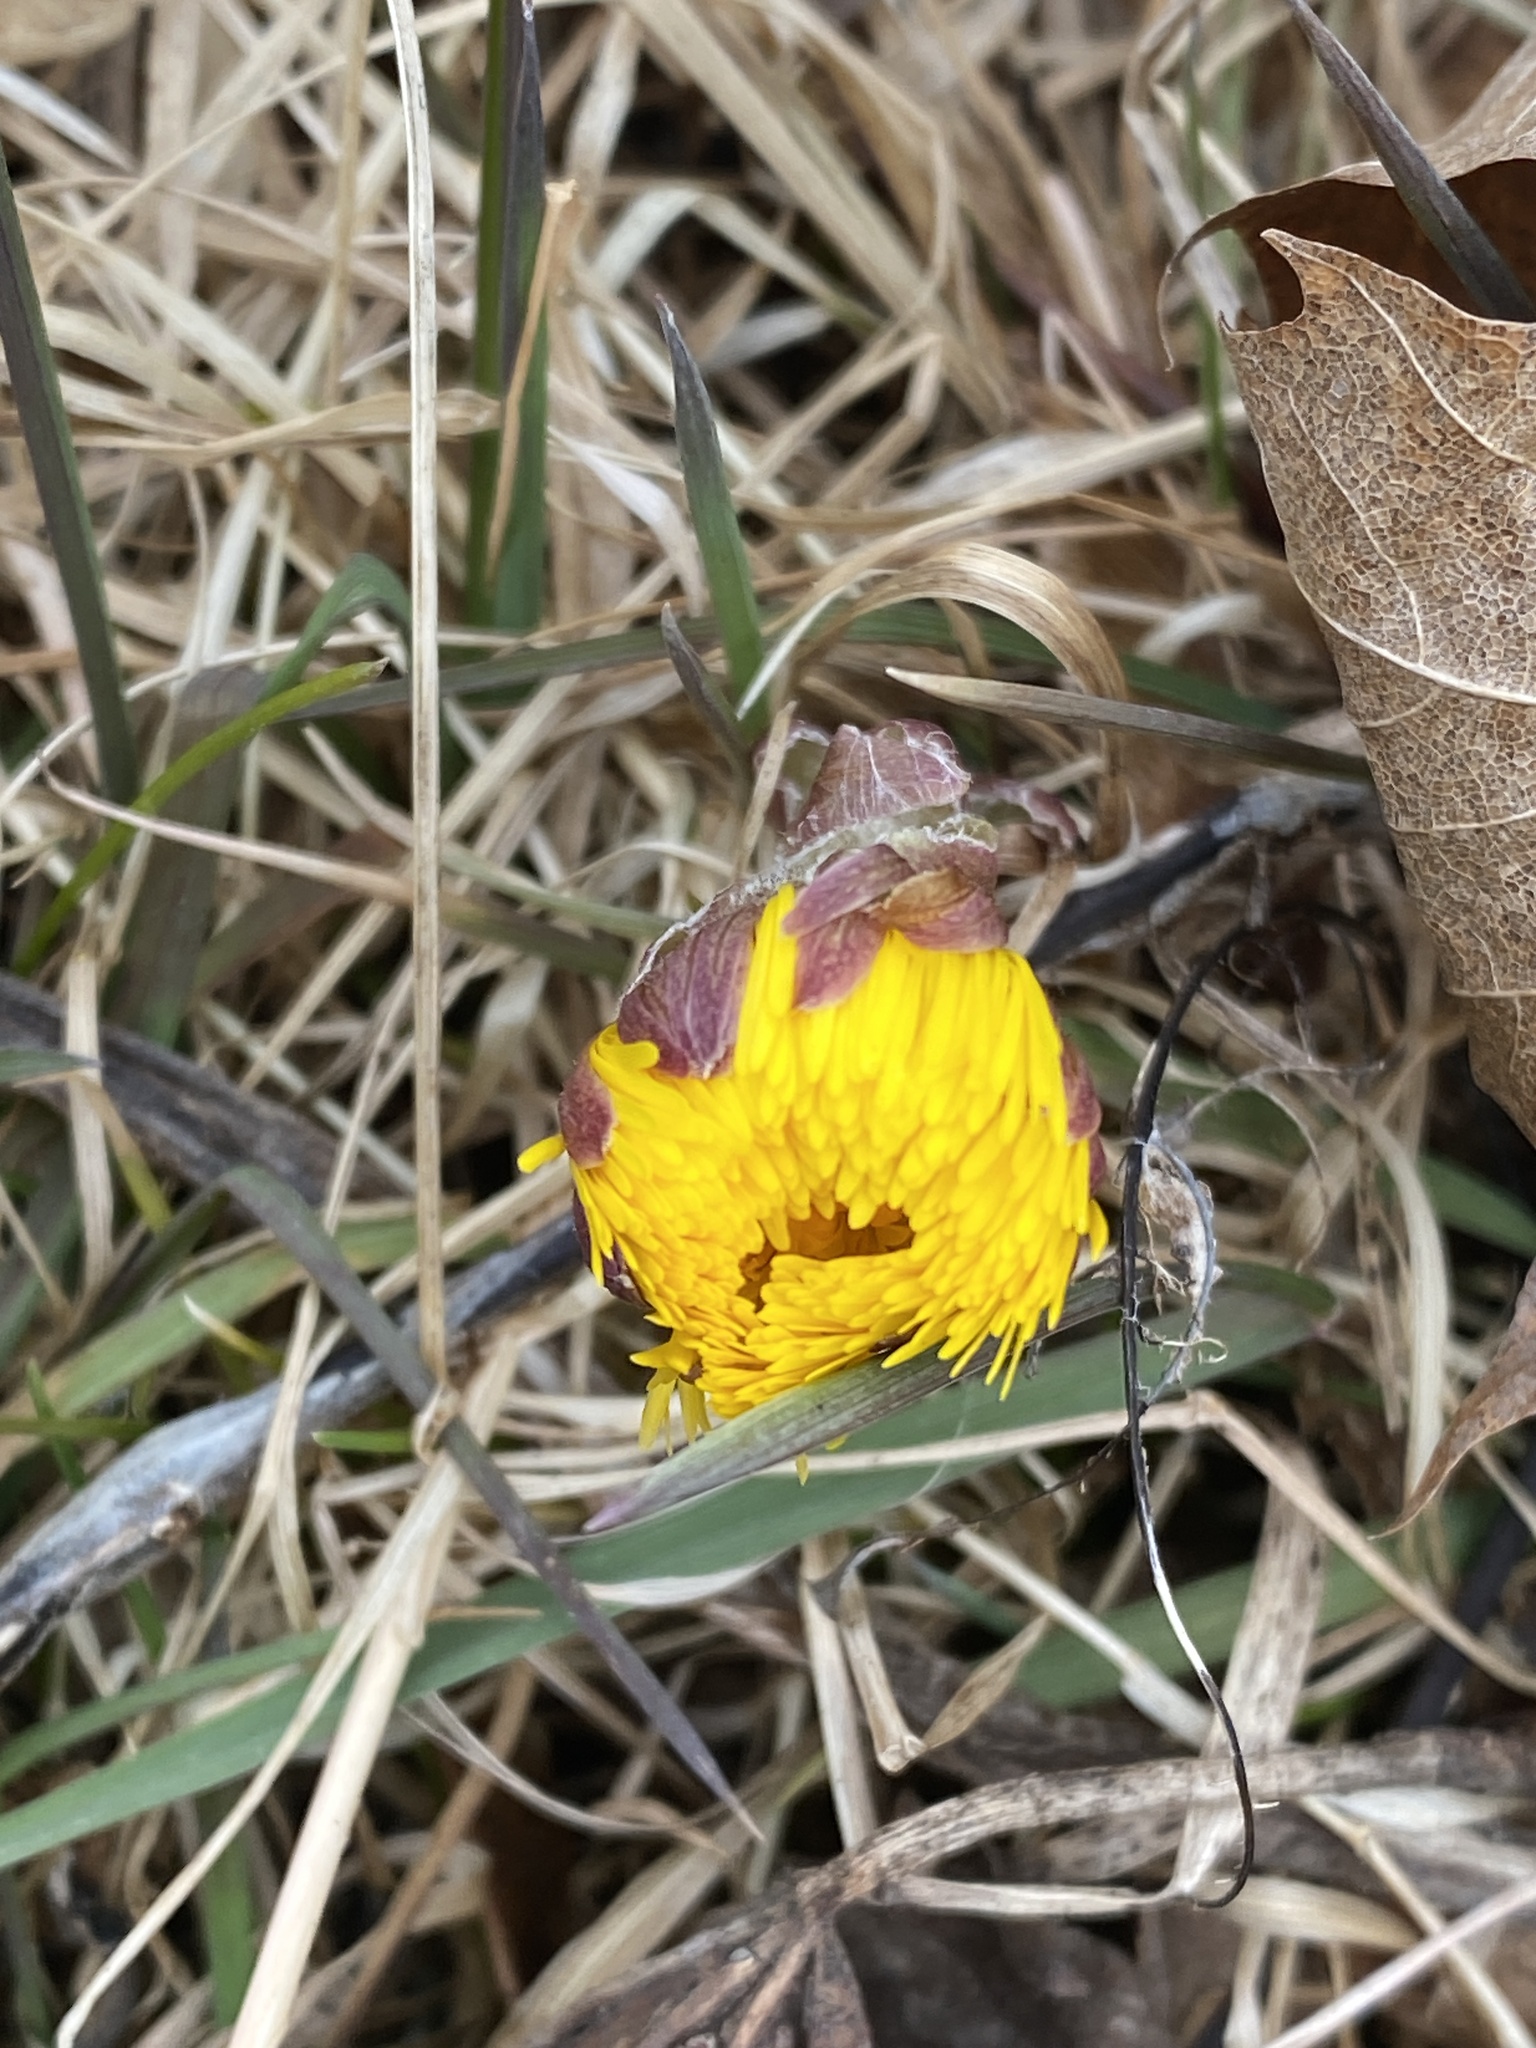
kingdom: Plantae
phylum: Tracheophyta
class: Magnoliopsida
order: Asterales
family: Asteraceae
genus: Tussilago
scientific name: Tussilago farfara
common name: Coltsfoot
